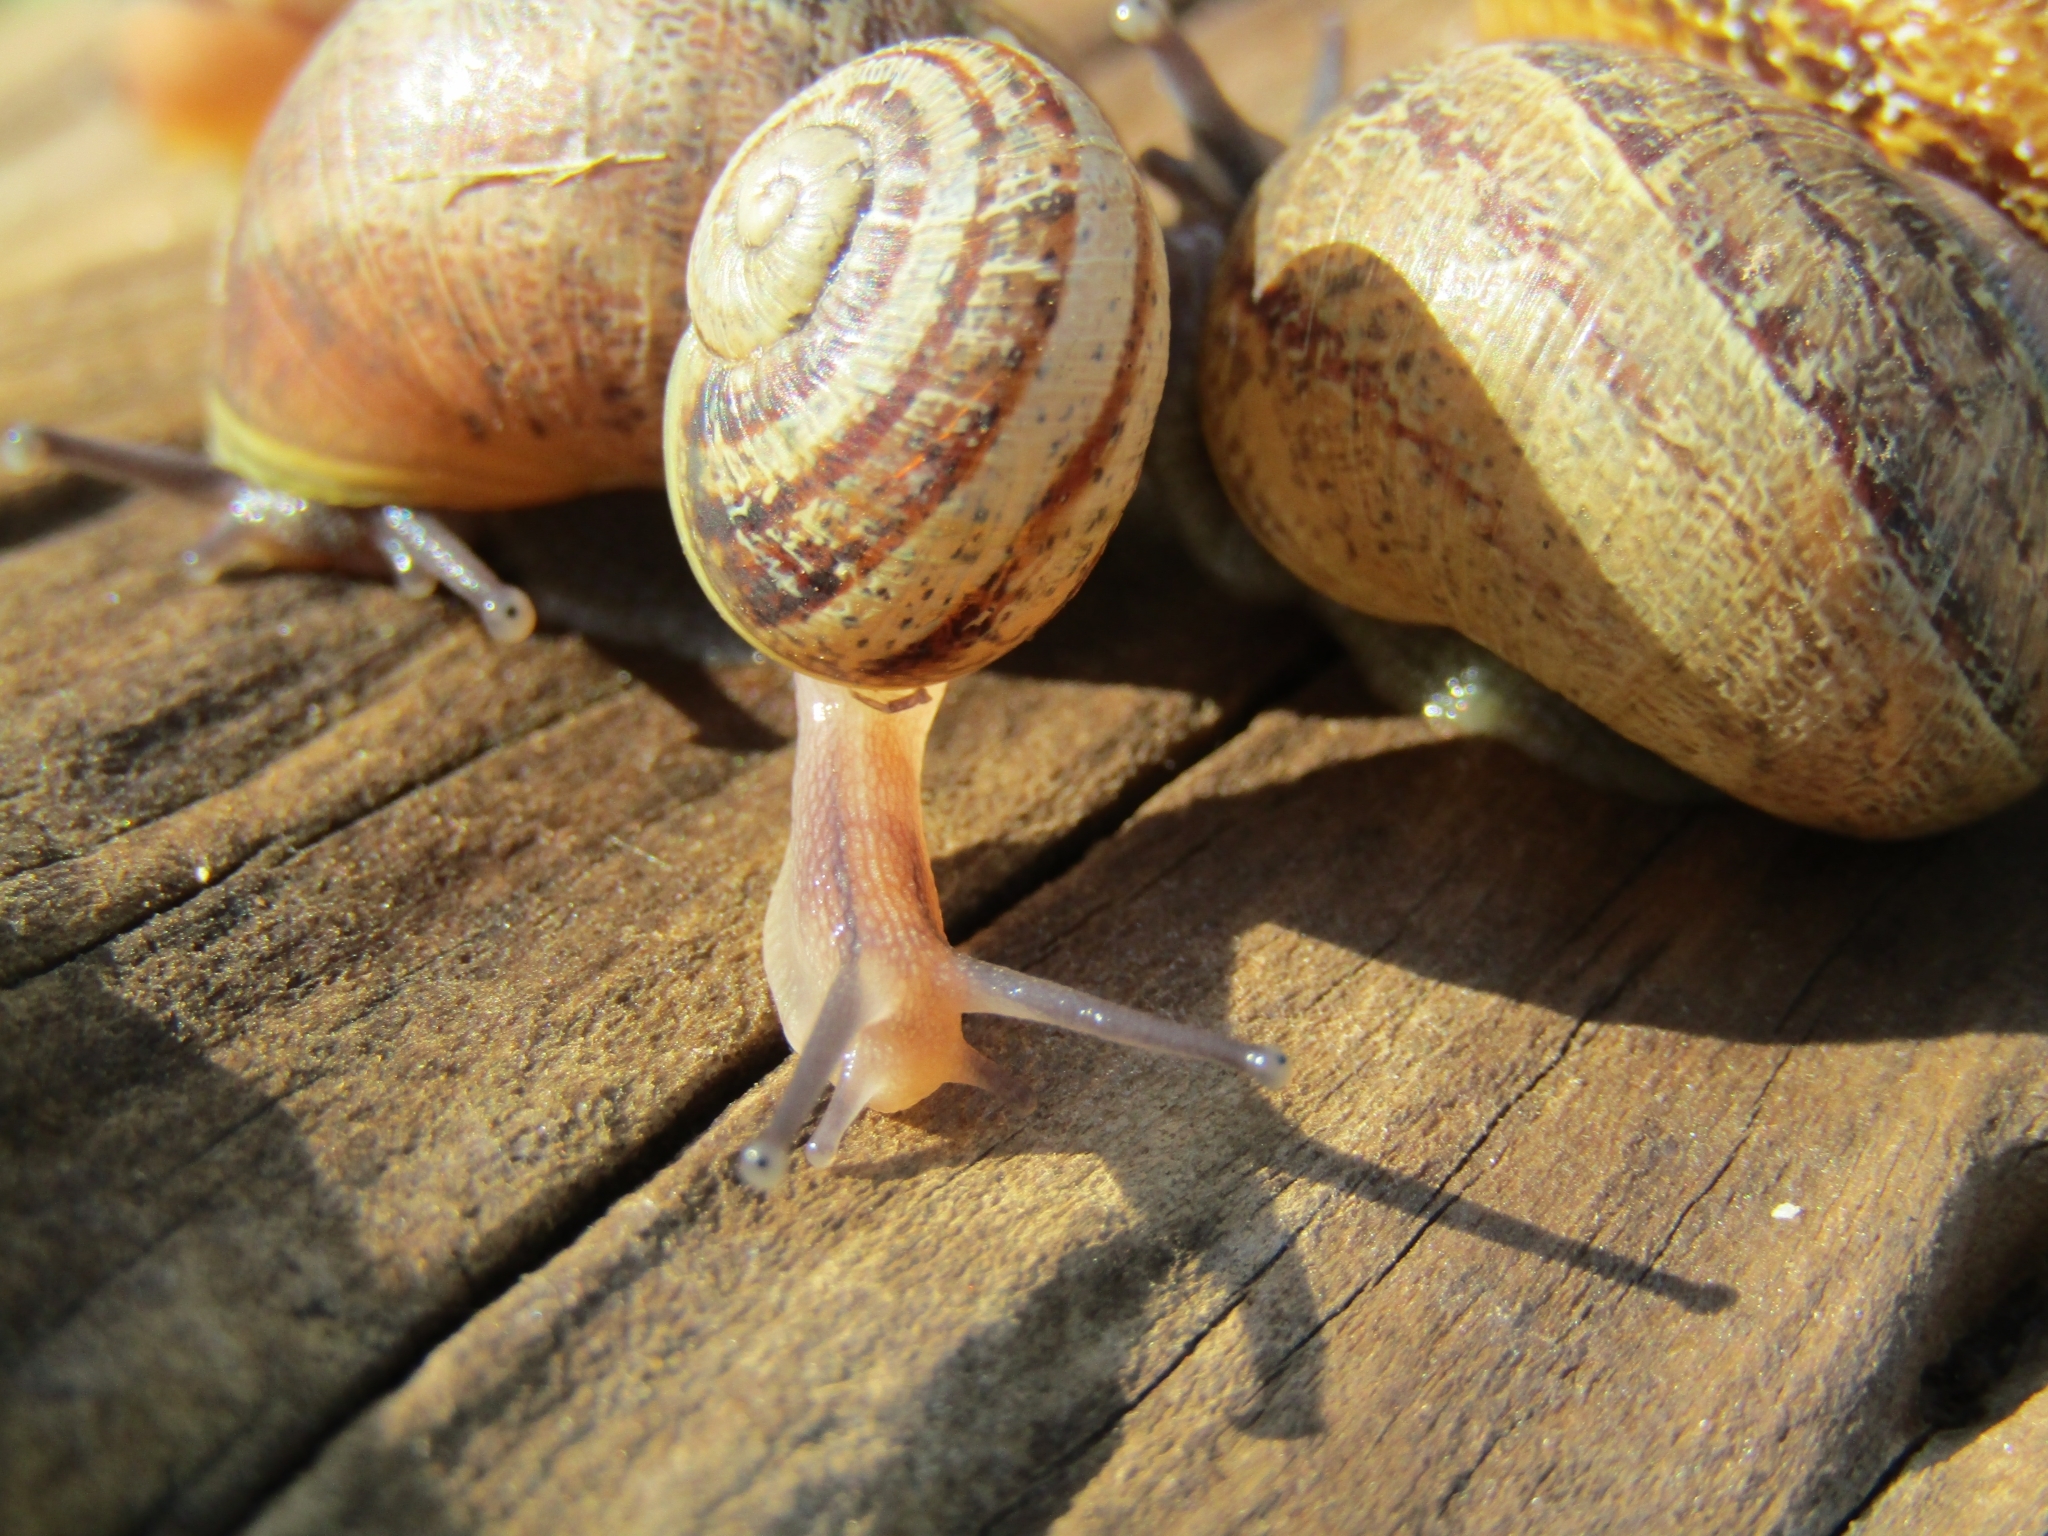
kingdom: Animalia
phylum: Mollusca
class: Gastropoda
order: Stylommatophora
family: Helicidae
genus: Cornu
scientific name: Cornu aspersum
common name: Brown garden snail
